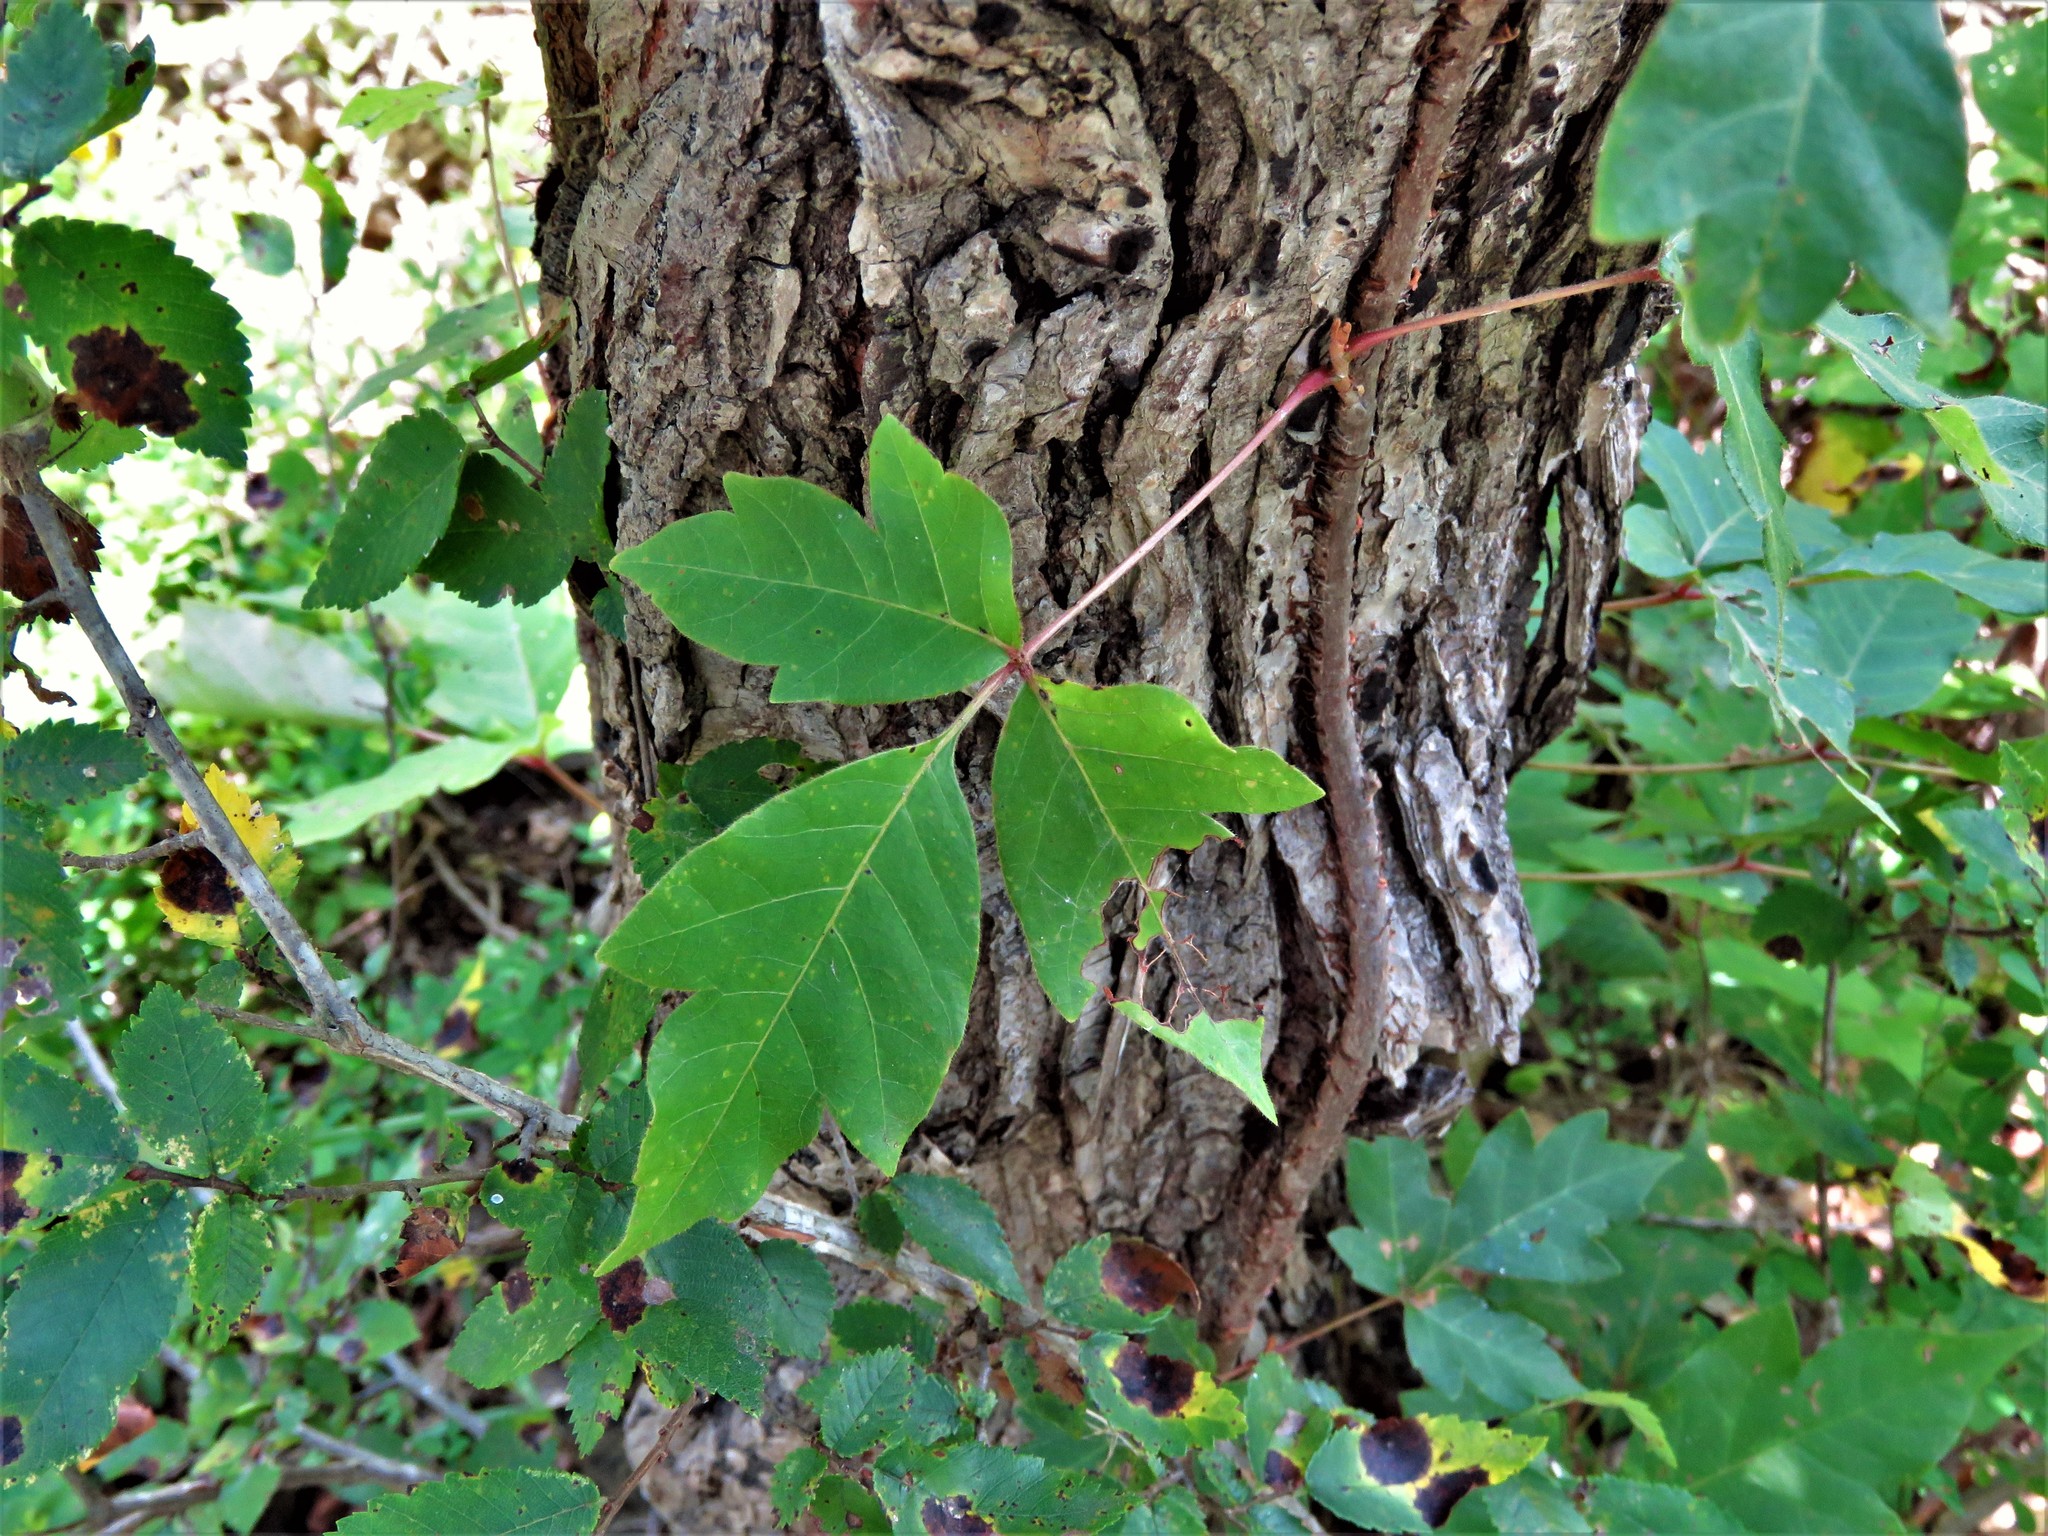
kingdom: Plantae
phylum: Tracheophyta
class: Magnoliopsida
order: Sapindales
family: Anacardiaceae
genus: Toxicodendron
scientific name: Toxicodendron radicans
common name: Poison ivy
